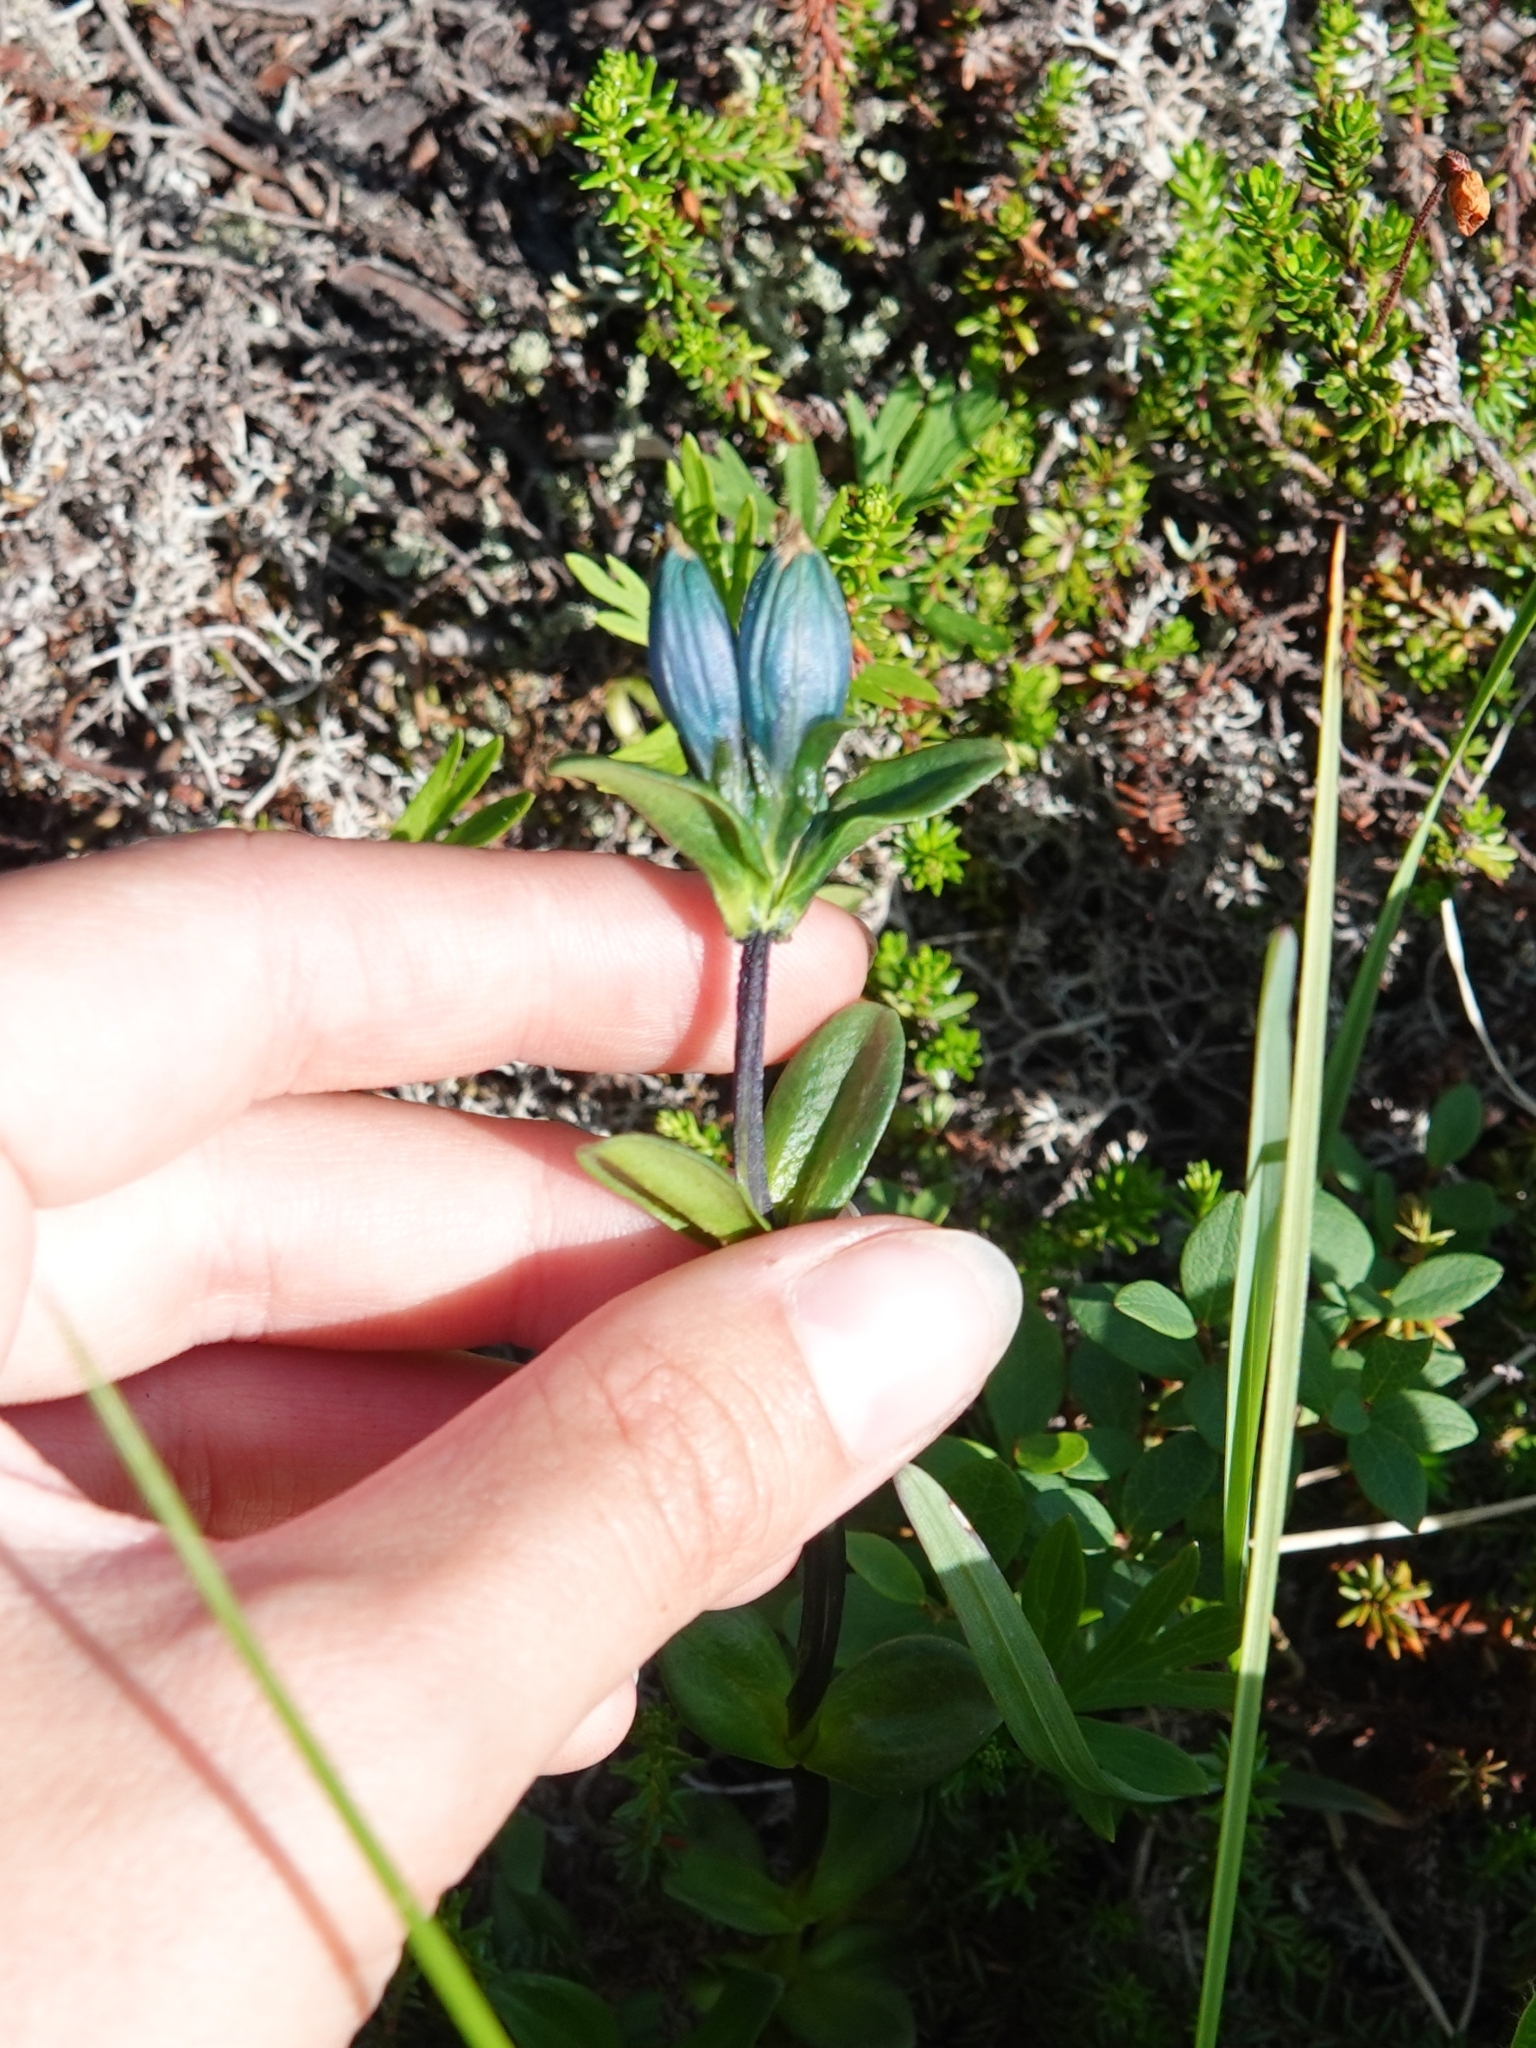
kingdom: Plantae
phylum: Tracheophyta
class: Magnoliopsida
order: Gentianales
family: Gentianaceae
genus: Gentiana
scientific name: Gentiana glauca
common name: Alpine gentian
